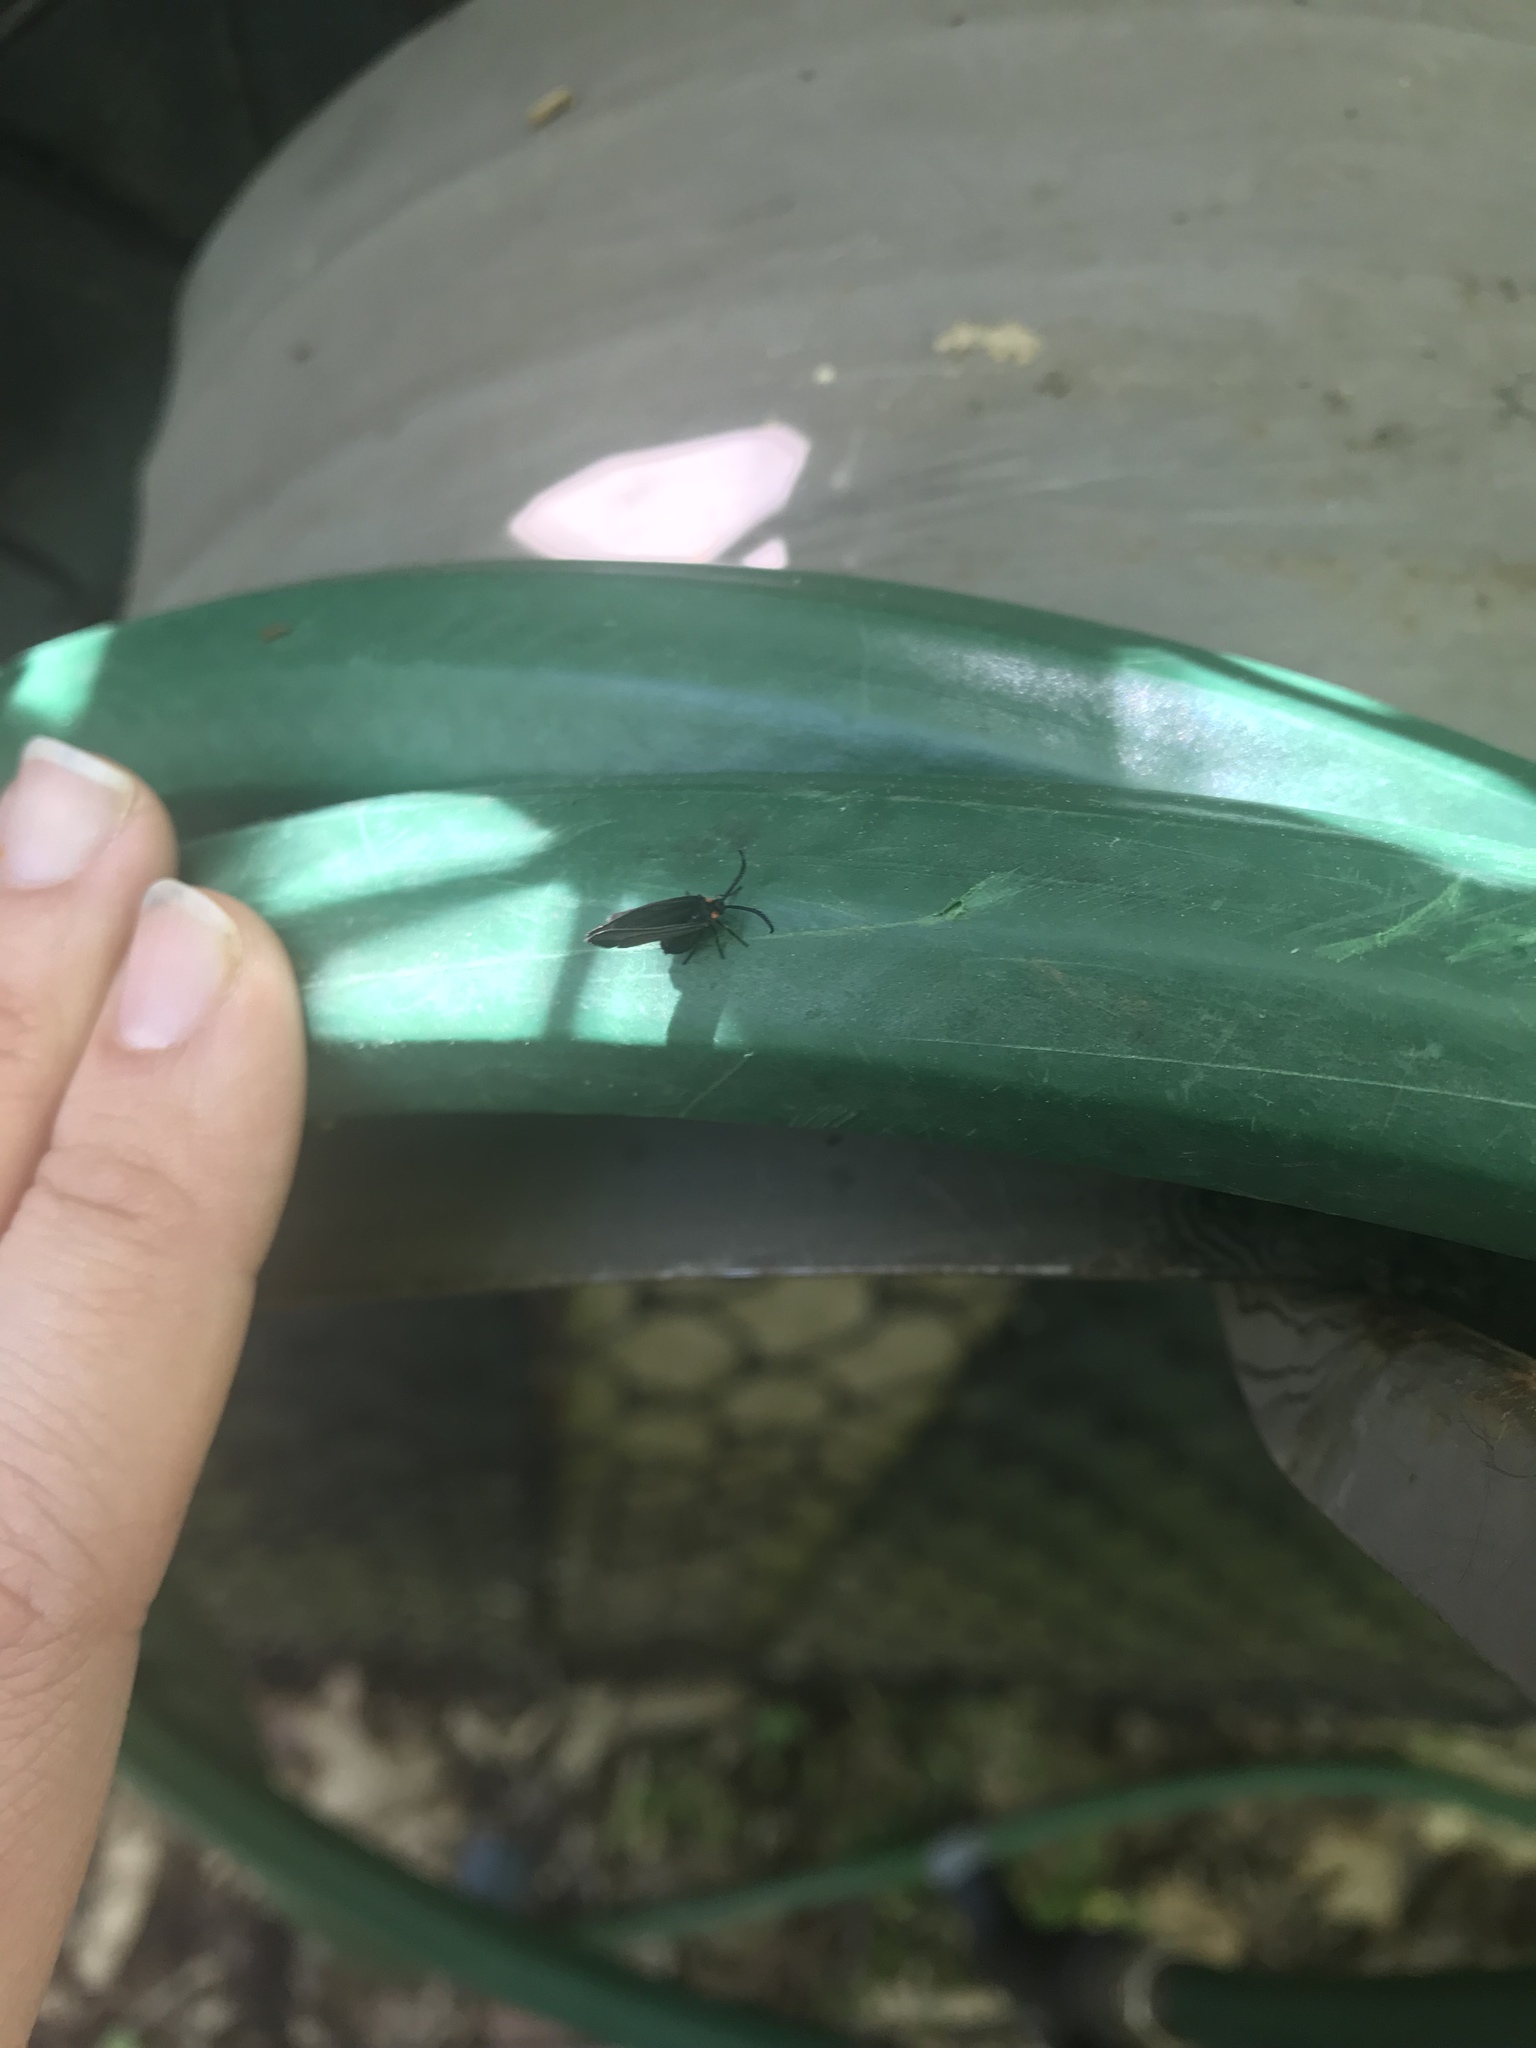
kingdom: Animalia
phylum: Arthropoda
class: Insecta
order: Lepidoptera
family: Zygaenidae
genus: Acoloithus
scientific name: Acoloithus falsarius
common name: Clemens' false skeletonizer
